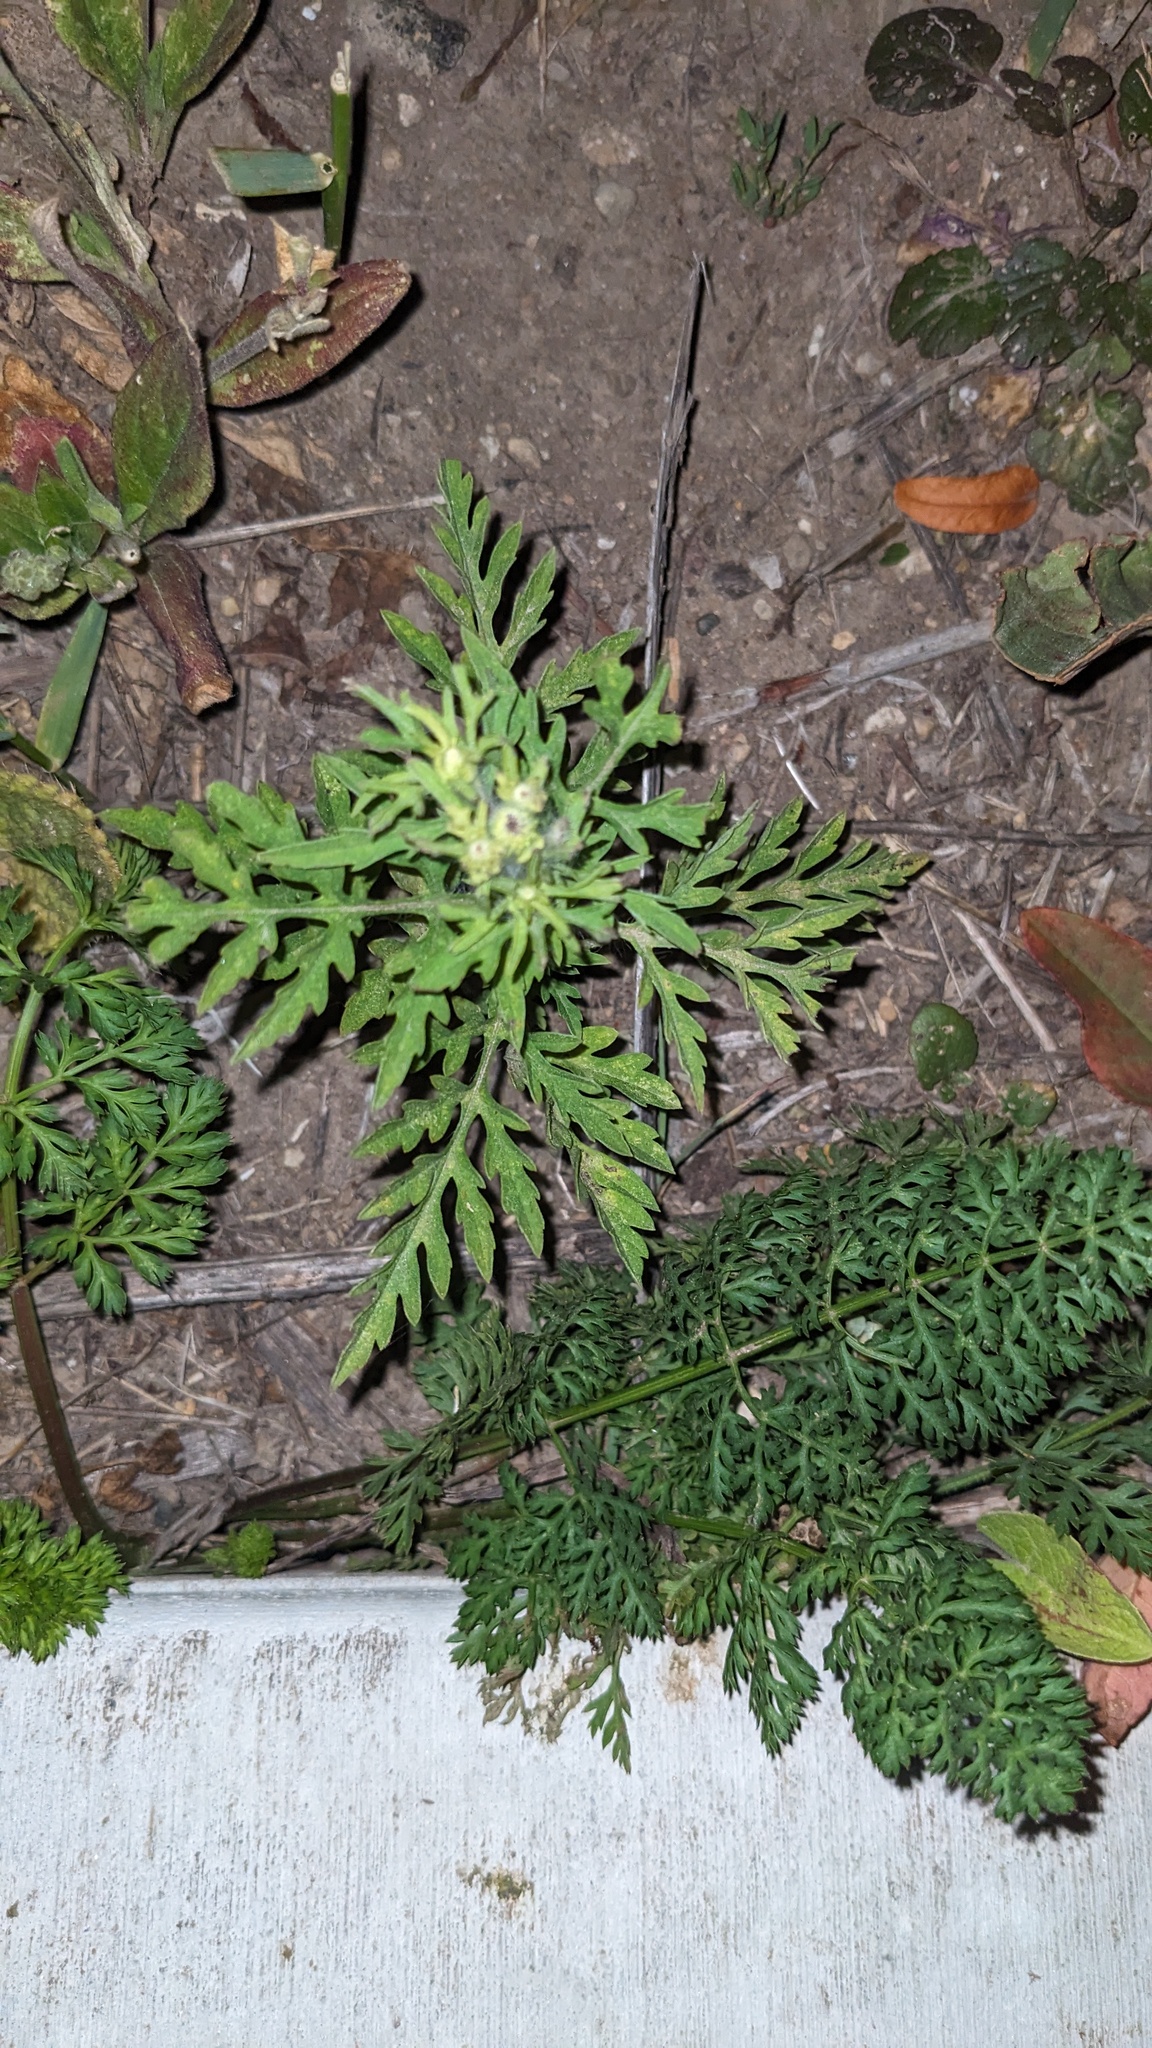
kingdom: Plantae
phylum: Tracheophyta
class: Magnoliopsida
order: Asterales
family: Asteraceae
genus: Ambrosia
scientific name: Ambrosia artemisiifolia
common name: Annual ragweed
